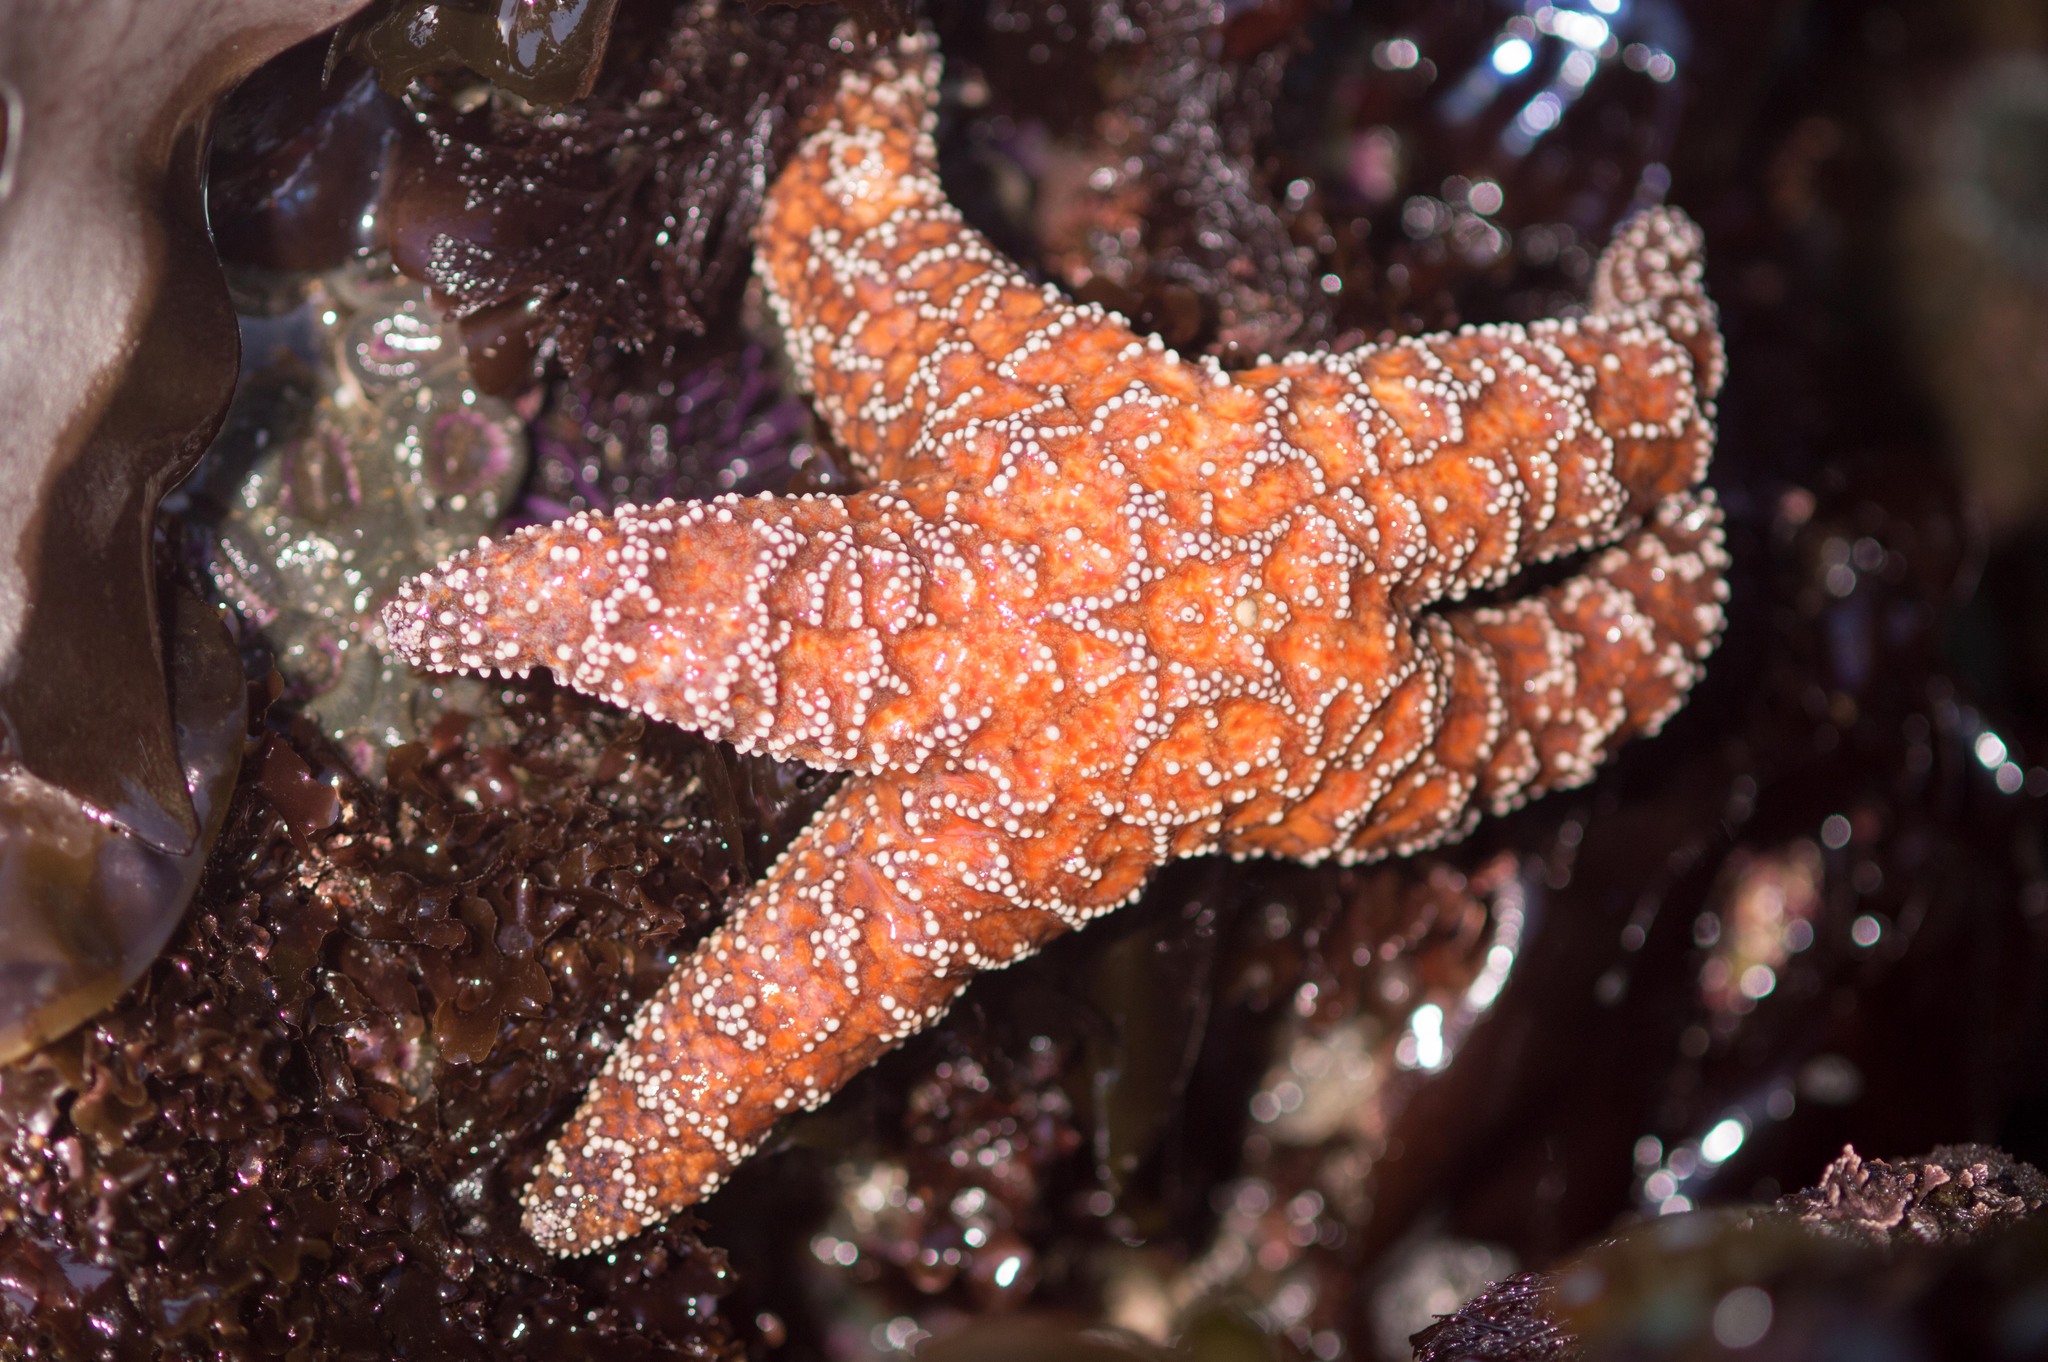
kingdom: Animalia
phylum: Echinodermata
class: Asteroidea
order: Forcipulatida
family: Asteriidae
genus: Pisaster
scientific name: Pisaster ochraceus
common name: Ochre stars
